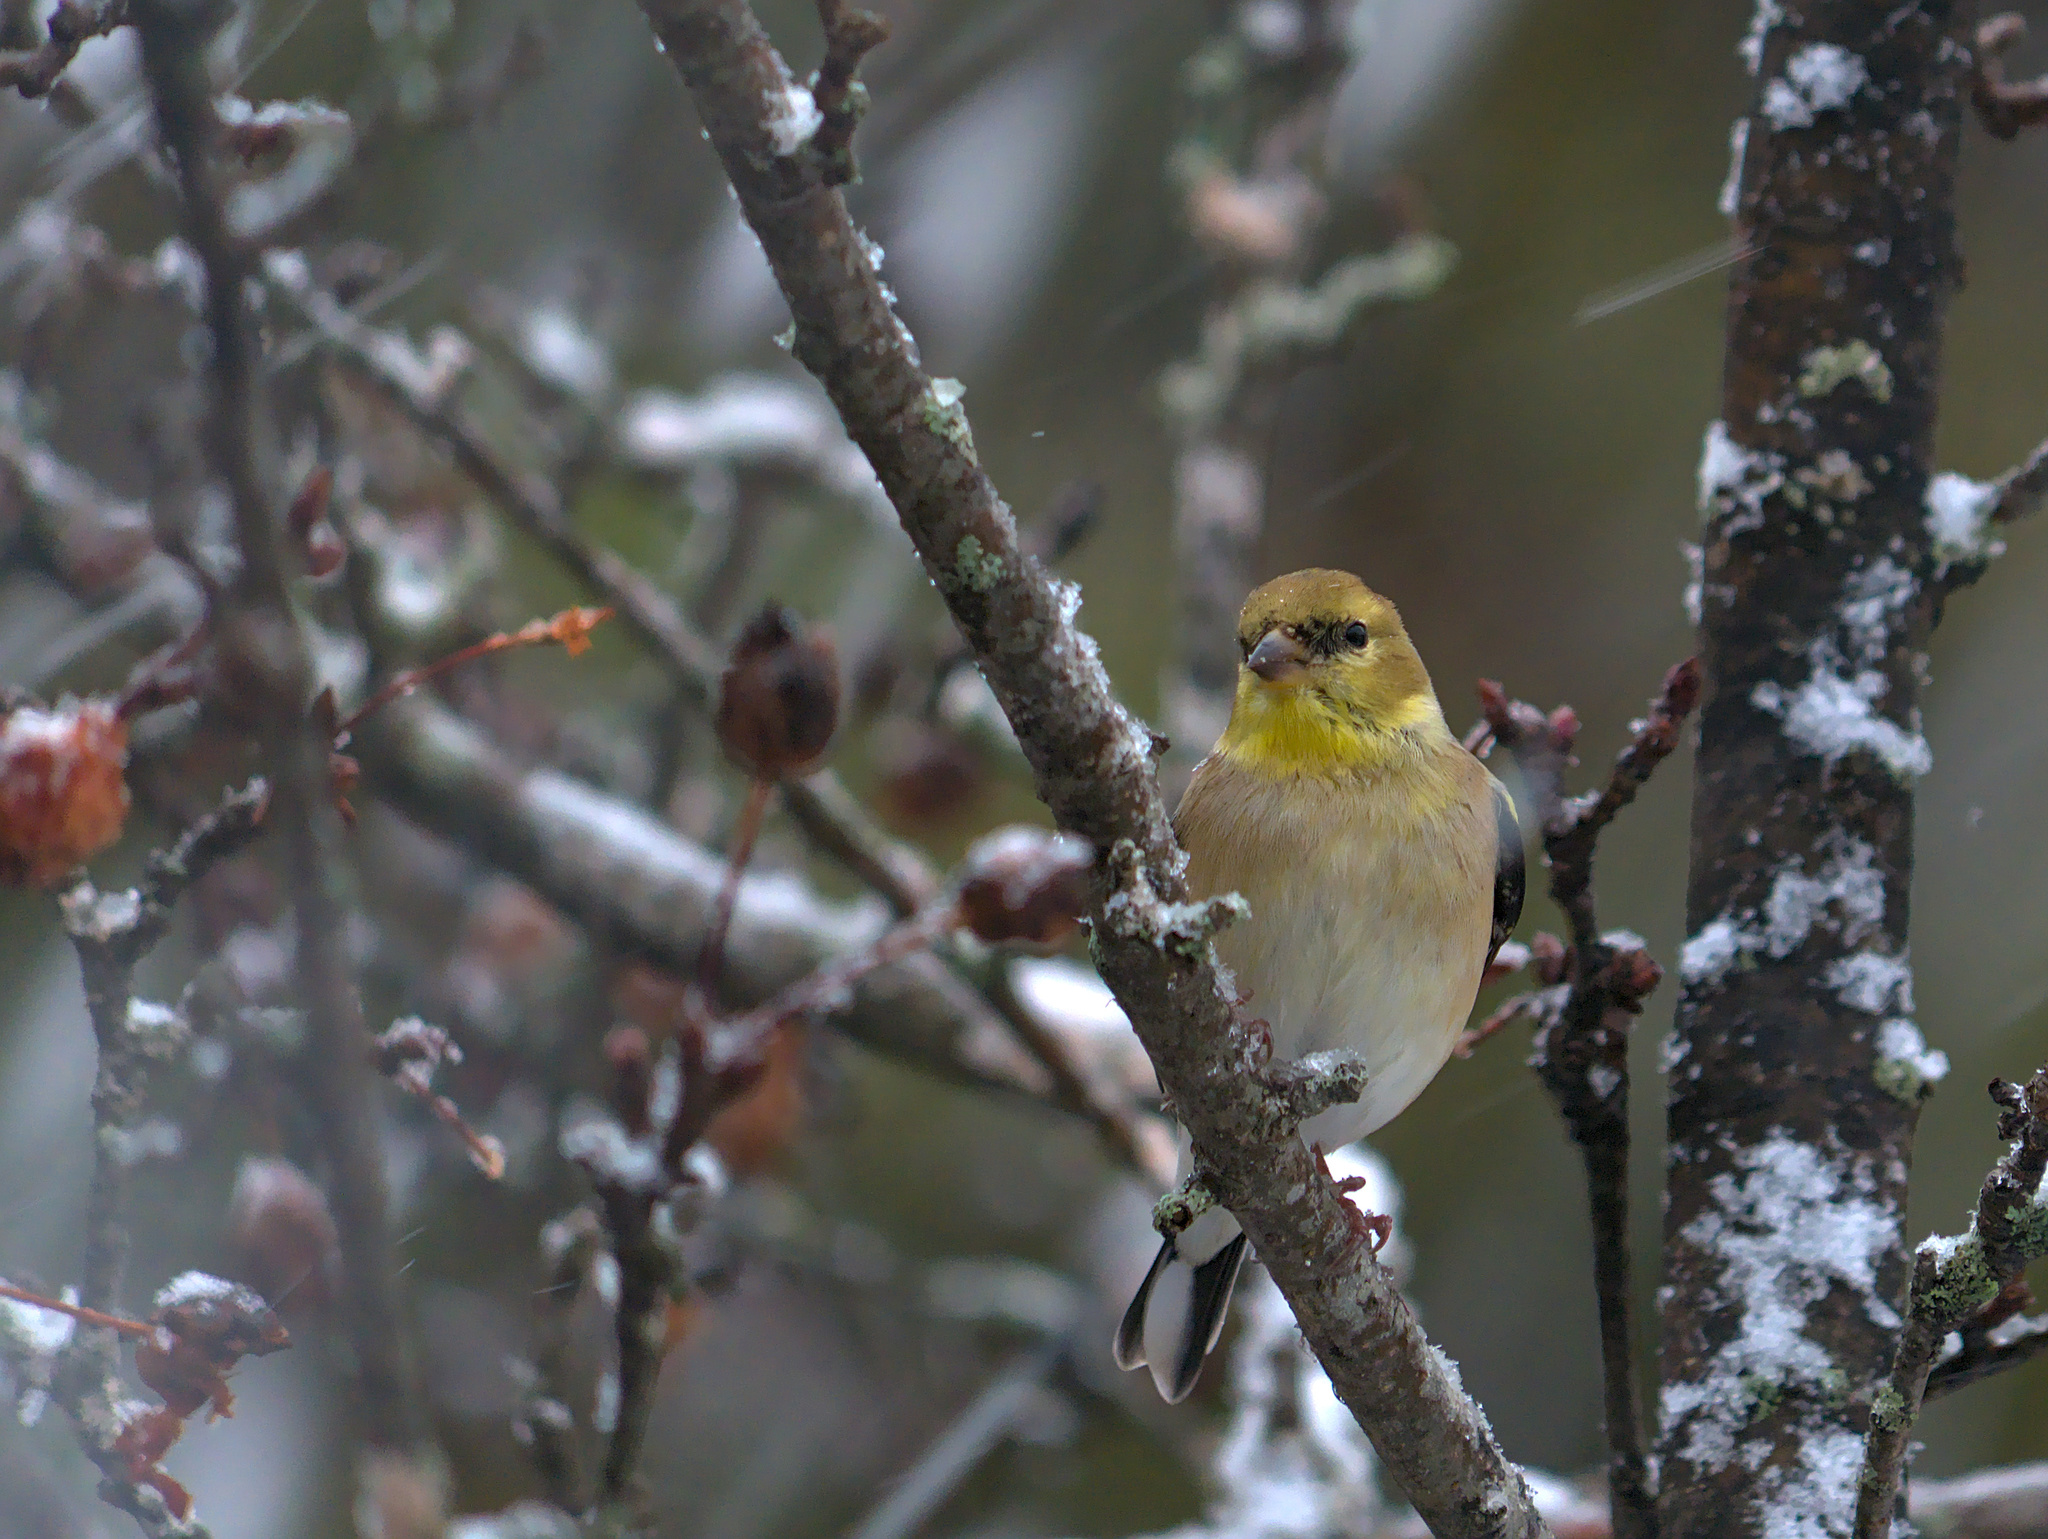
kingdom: Animalia
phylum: Chordata
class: Aves
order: Passeriformes
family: Fringillidae
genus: Spinus
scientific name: Spinus tristis
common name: American goldfinch
